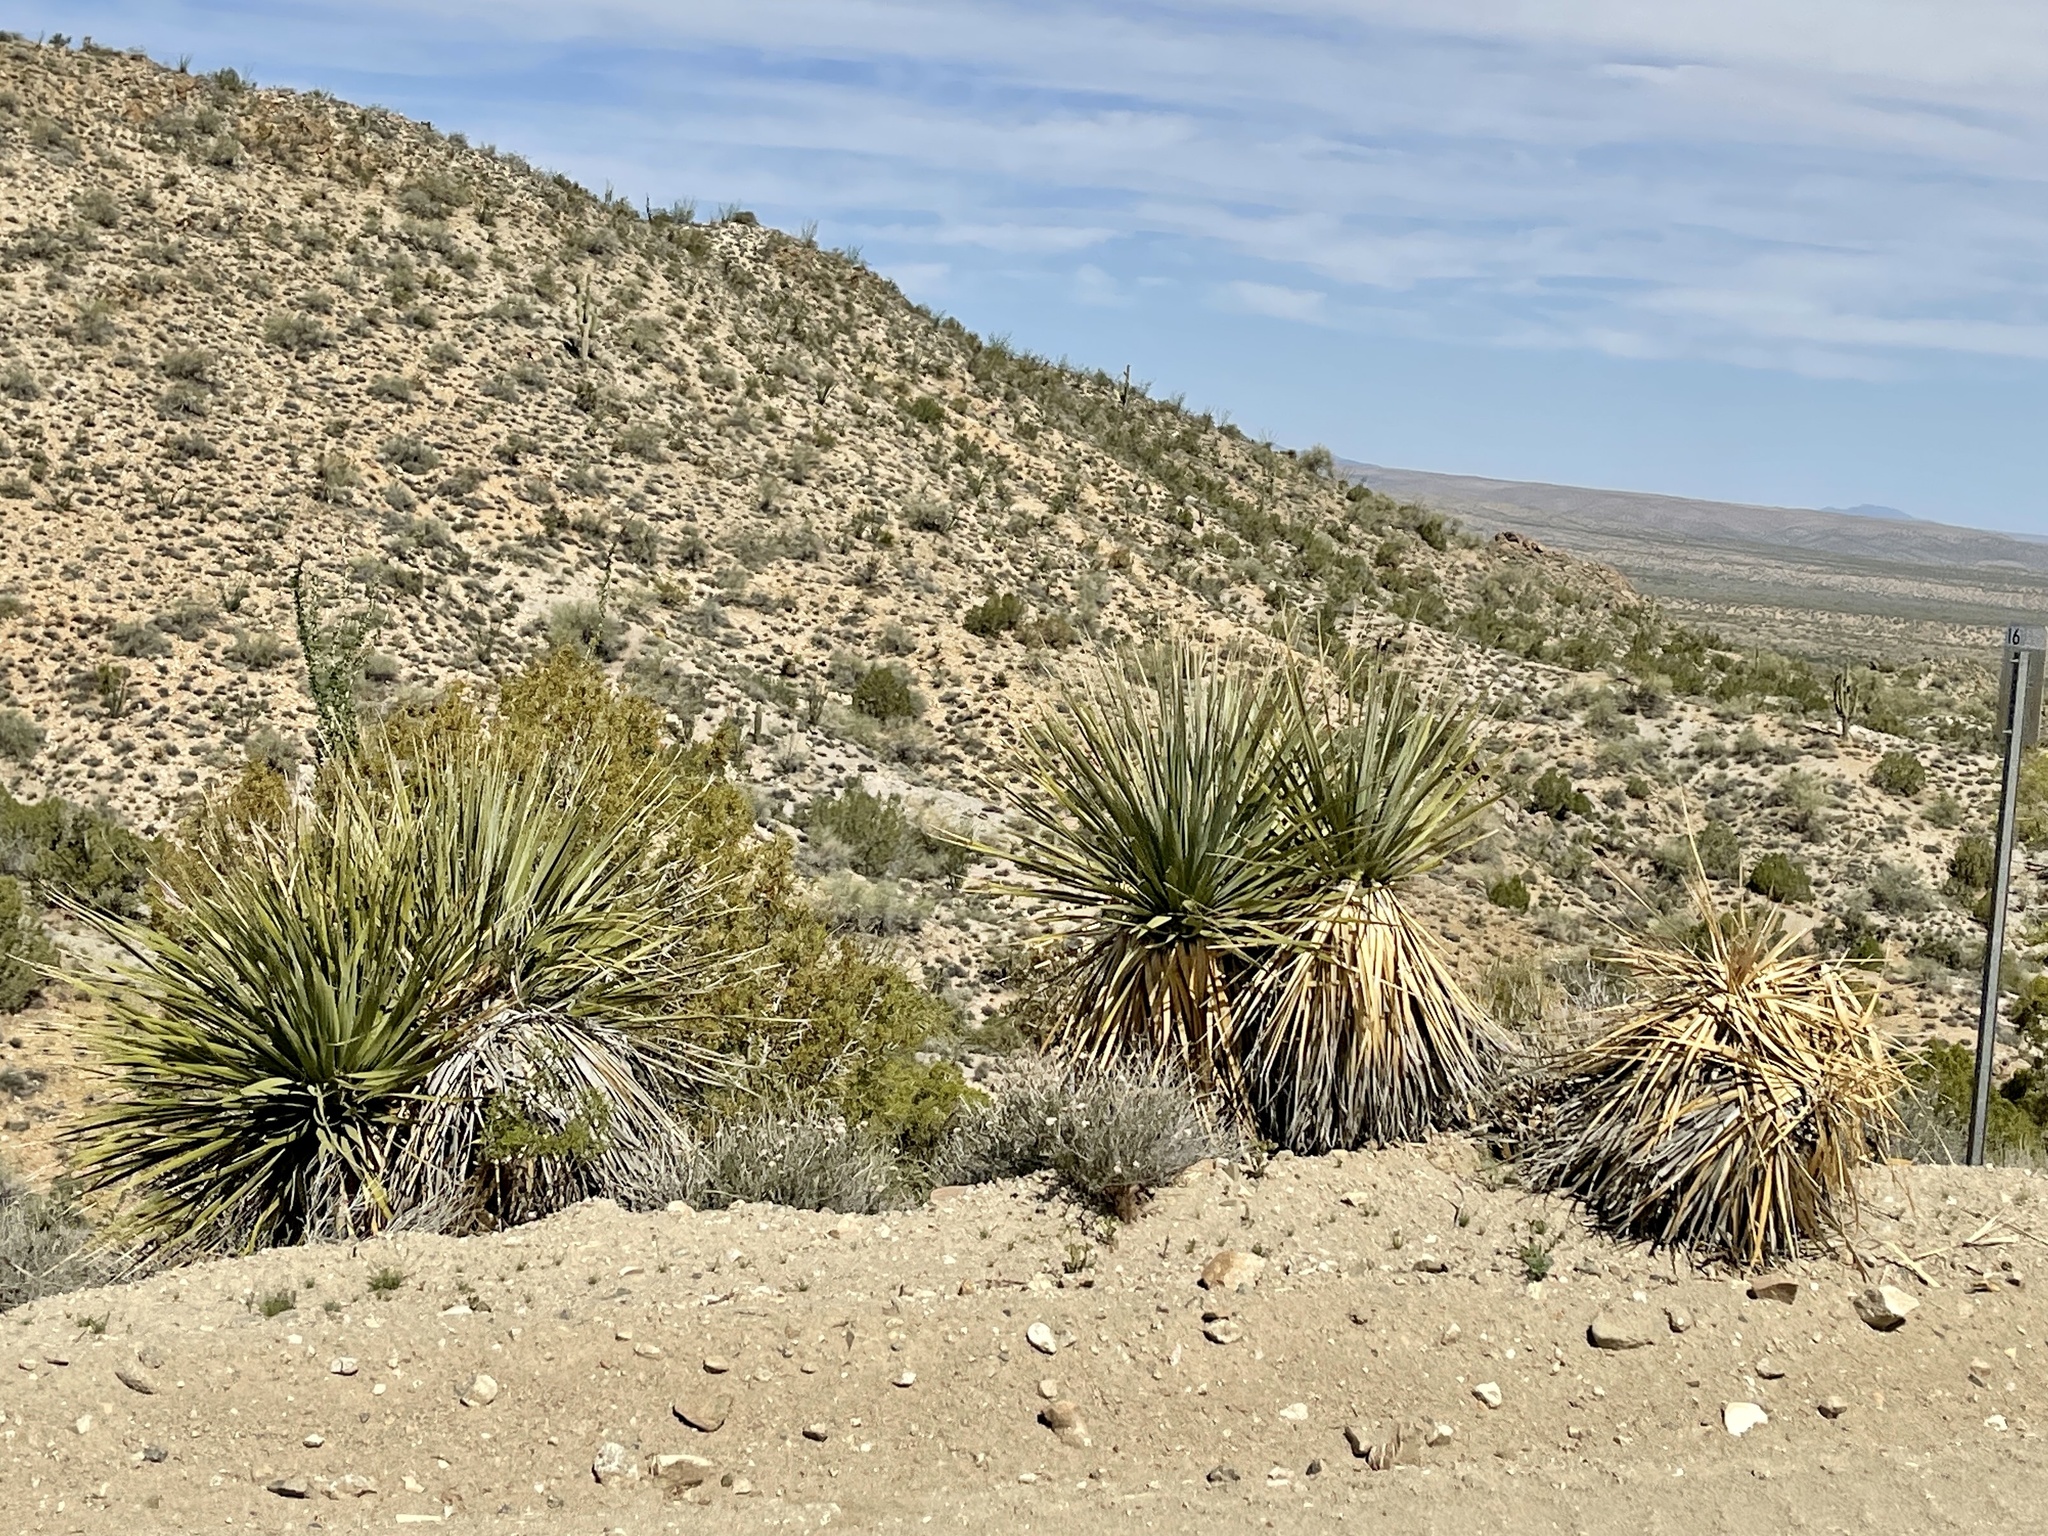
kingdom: Plantae
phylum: Tracheophyta
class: Liliopsida
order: Asparagales
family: Asparagaceae
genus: Nolina
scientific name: Nolina bigelovii
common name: Bigelow bear-grass
